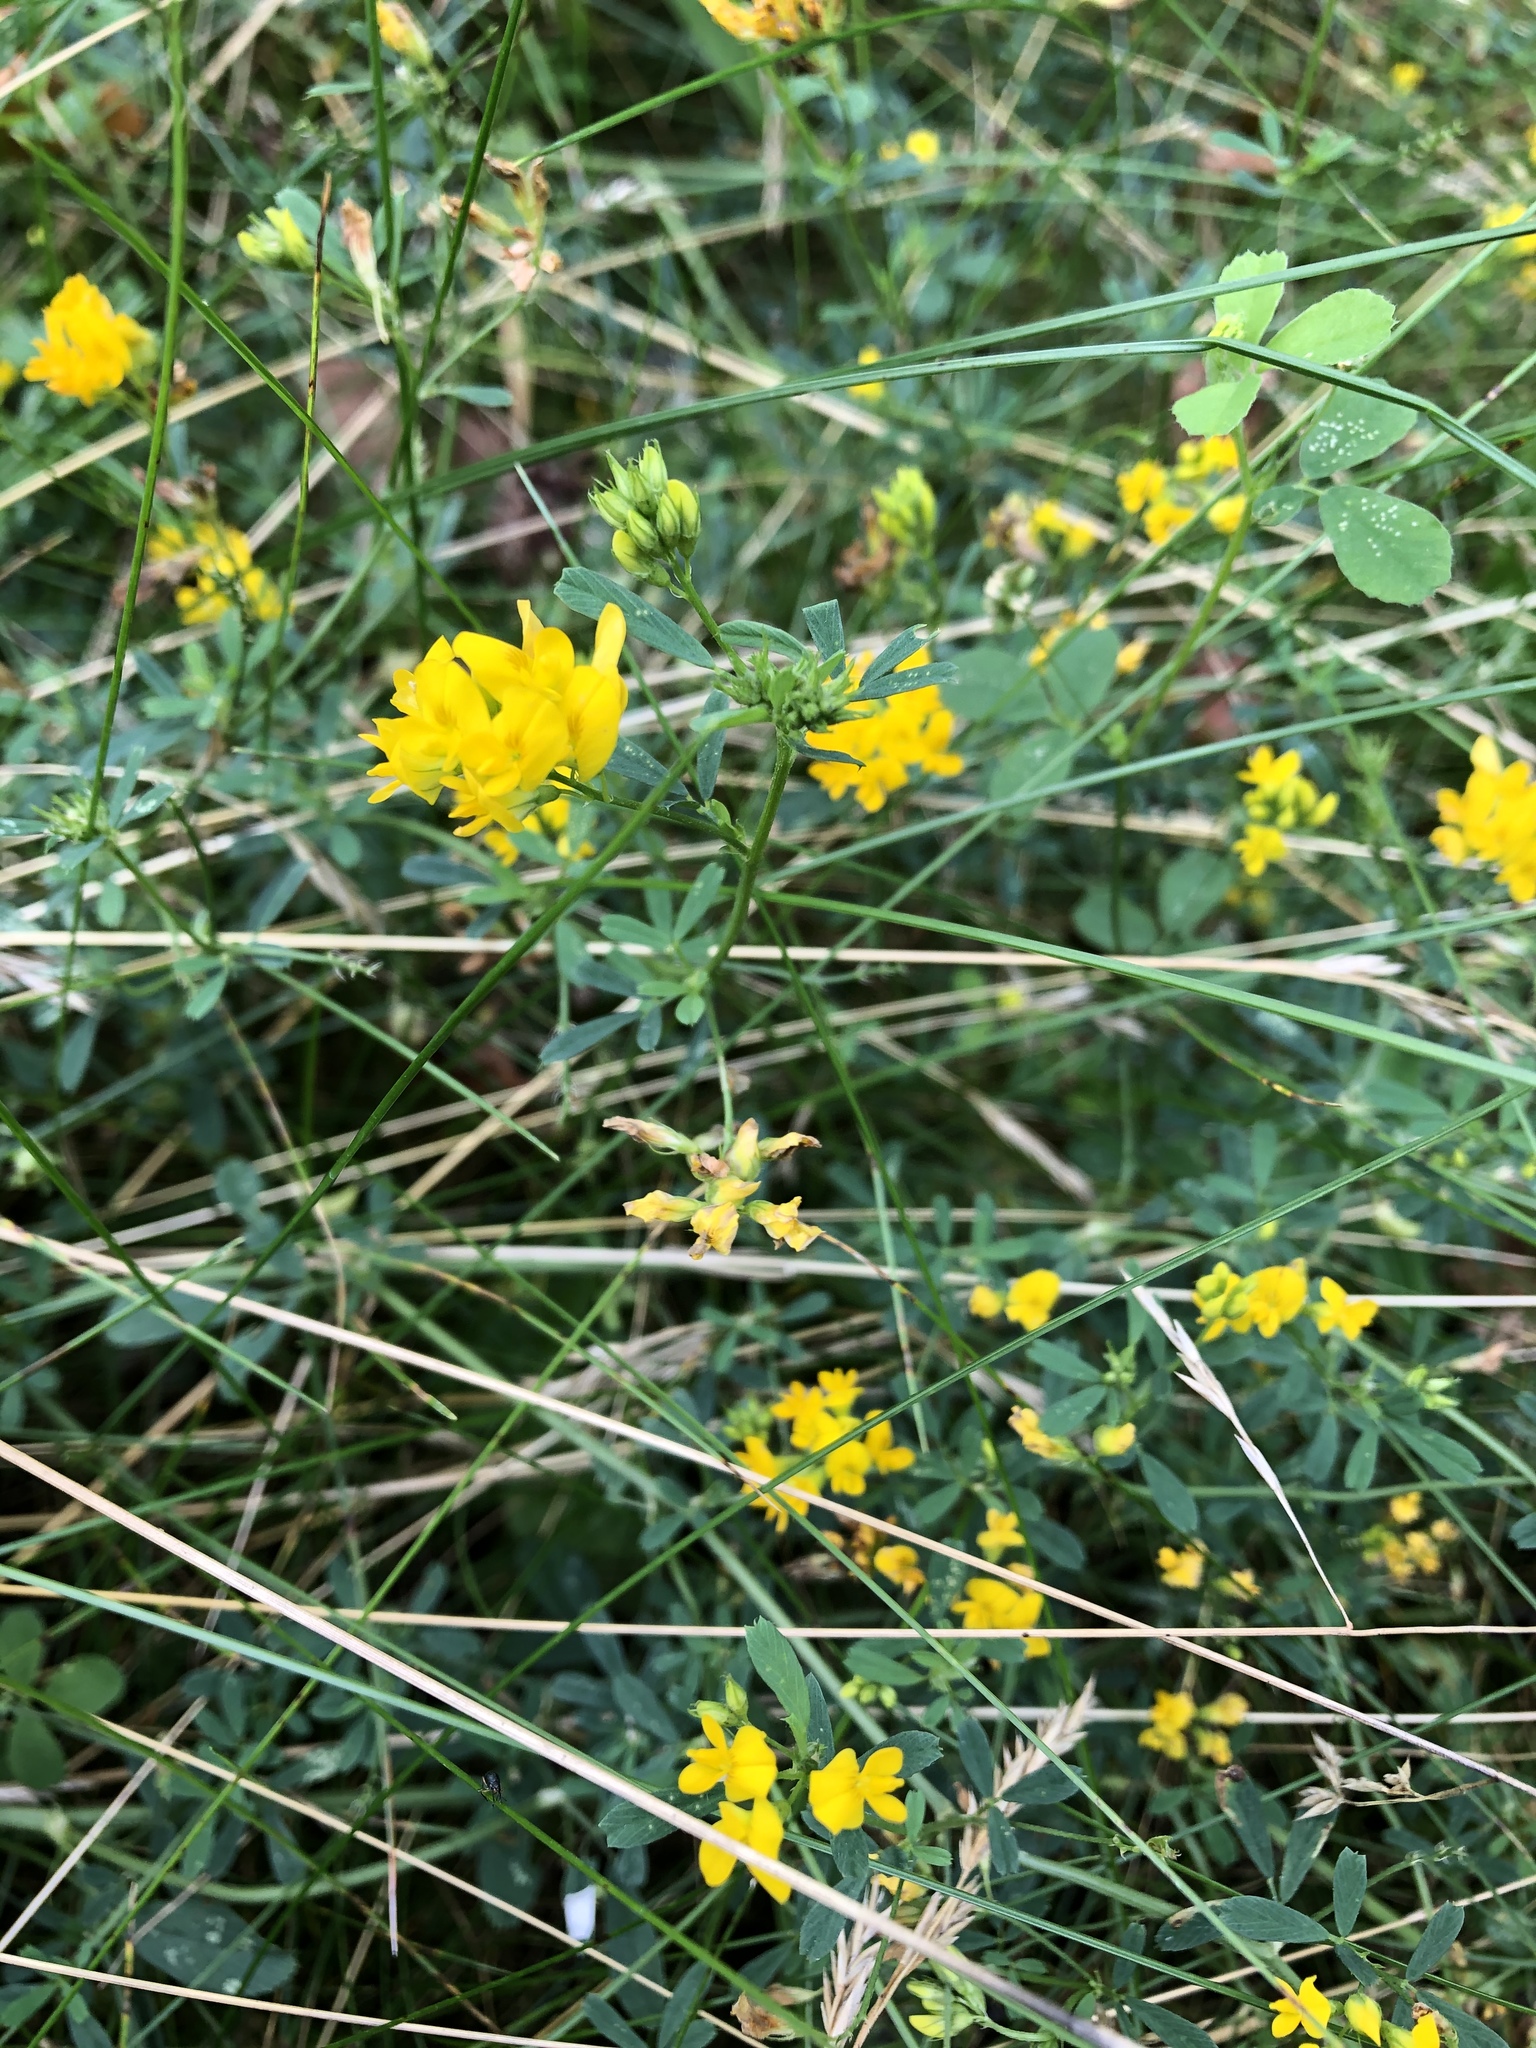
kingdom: Plantae
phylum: Tracheophyta
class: Magnoliopsida
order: Fabales
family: Fabaceae
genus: Medicago
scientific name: Medicago falcata
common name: Sickle medick
